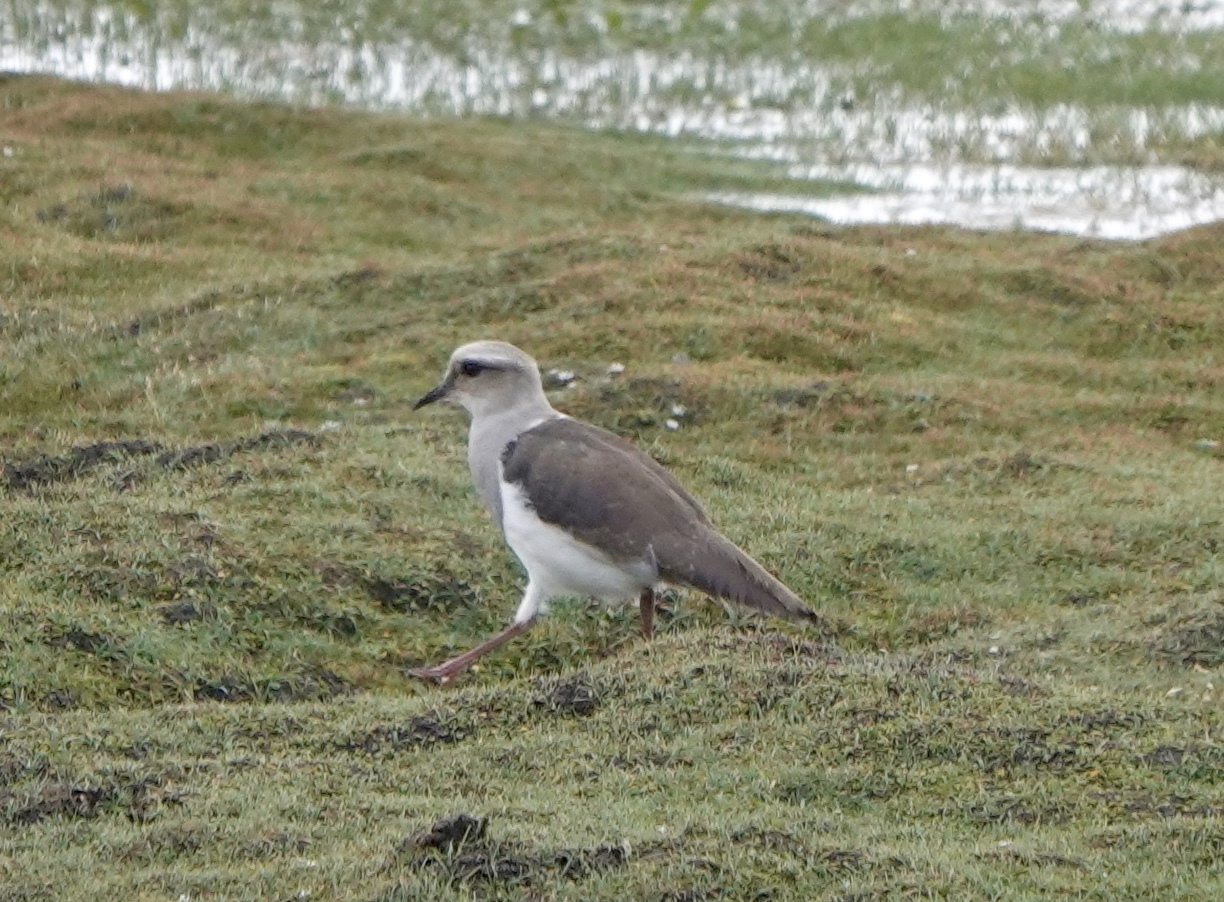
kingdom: Animalia
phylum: Chordata
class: Aves
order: Charadriiformes
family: Charadriidae
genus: Vanellus
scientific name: Vanellus resplendens
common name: Andean lapwing
